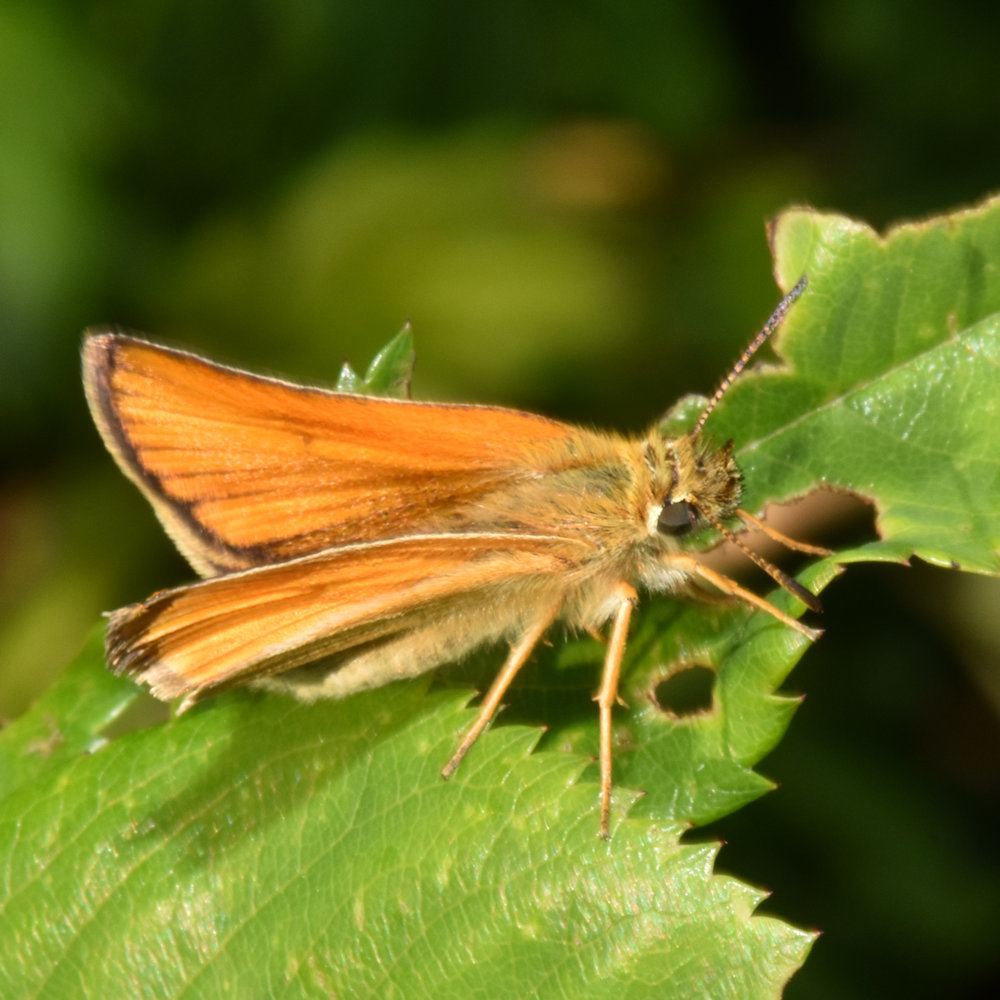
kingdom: Animalia
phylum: Arthropoda
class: Insecta
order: Lepidoptera
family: Hesperiidae
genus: Thymelicus
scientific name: Thymelicus lineola
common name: Essex skipper
